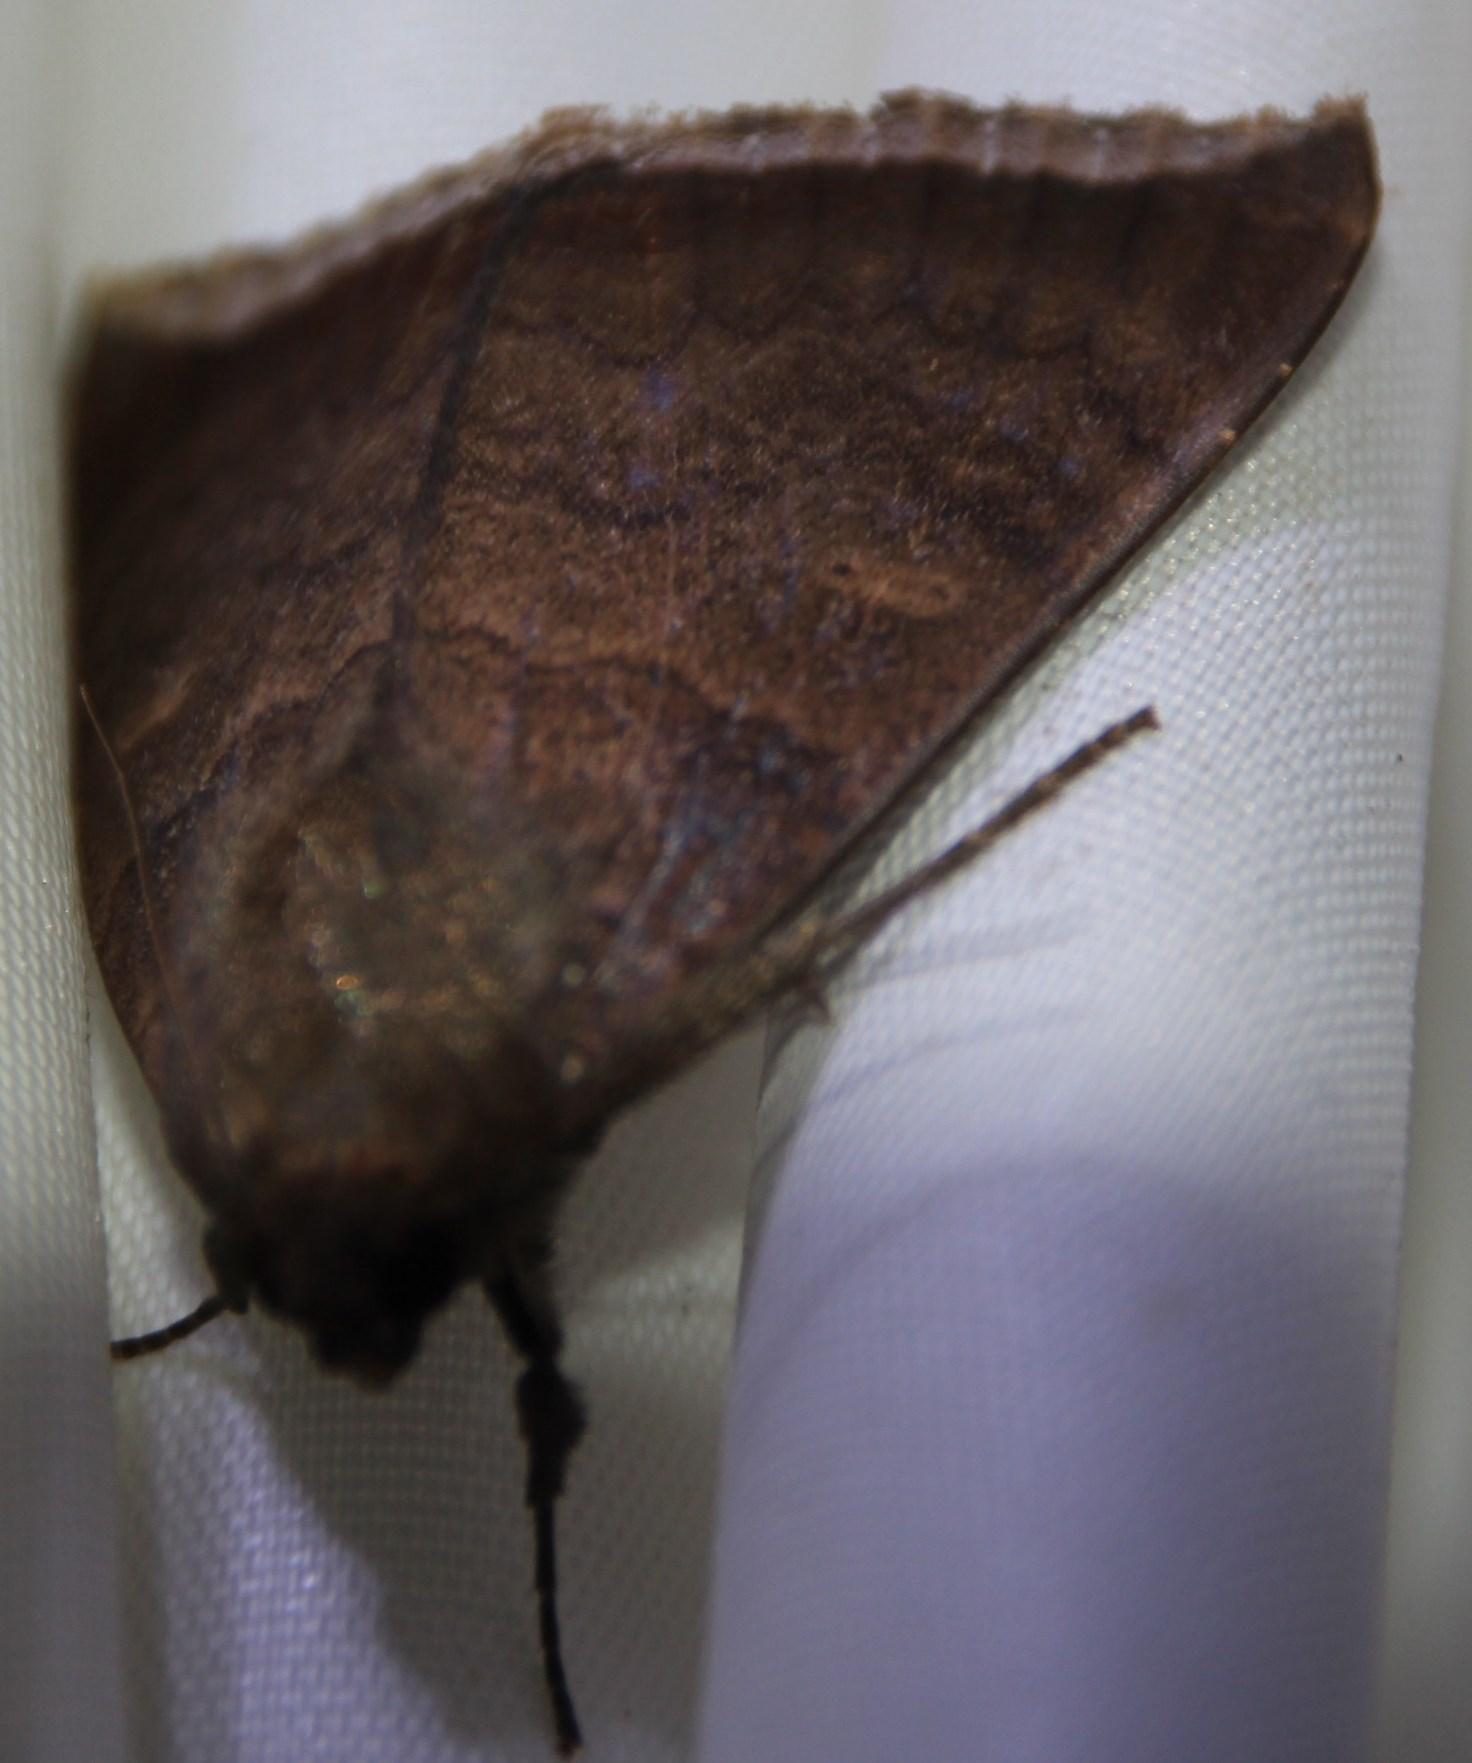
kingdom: Animalia
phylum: Arthropoda
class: Insecta
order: Lepidoptera
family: Erebidae
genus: Achaea
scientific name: Achaea finita
